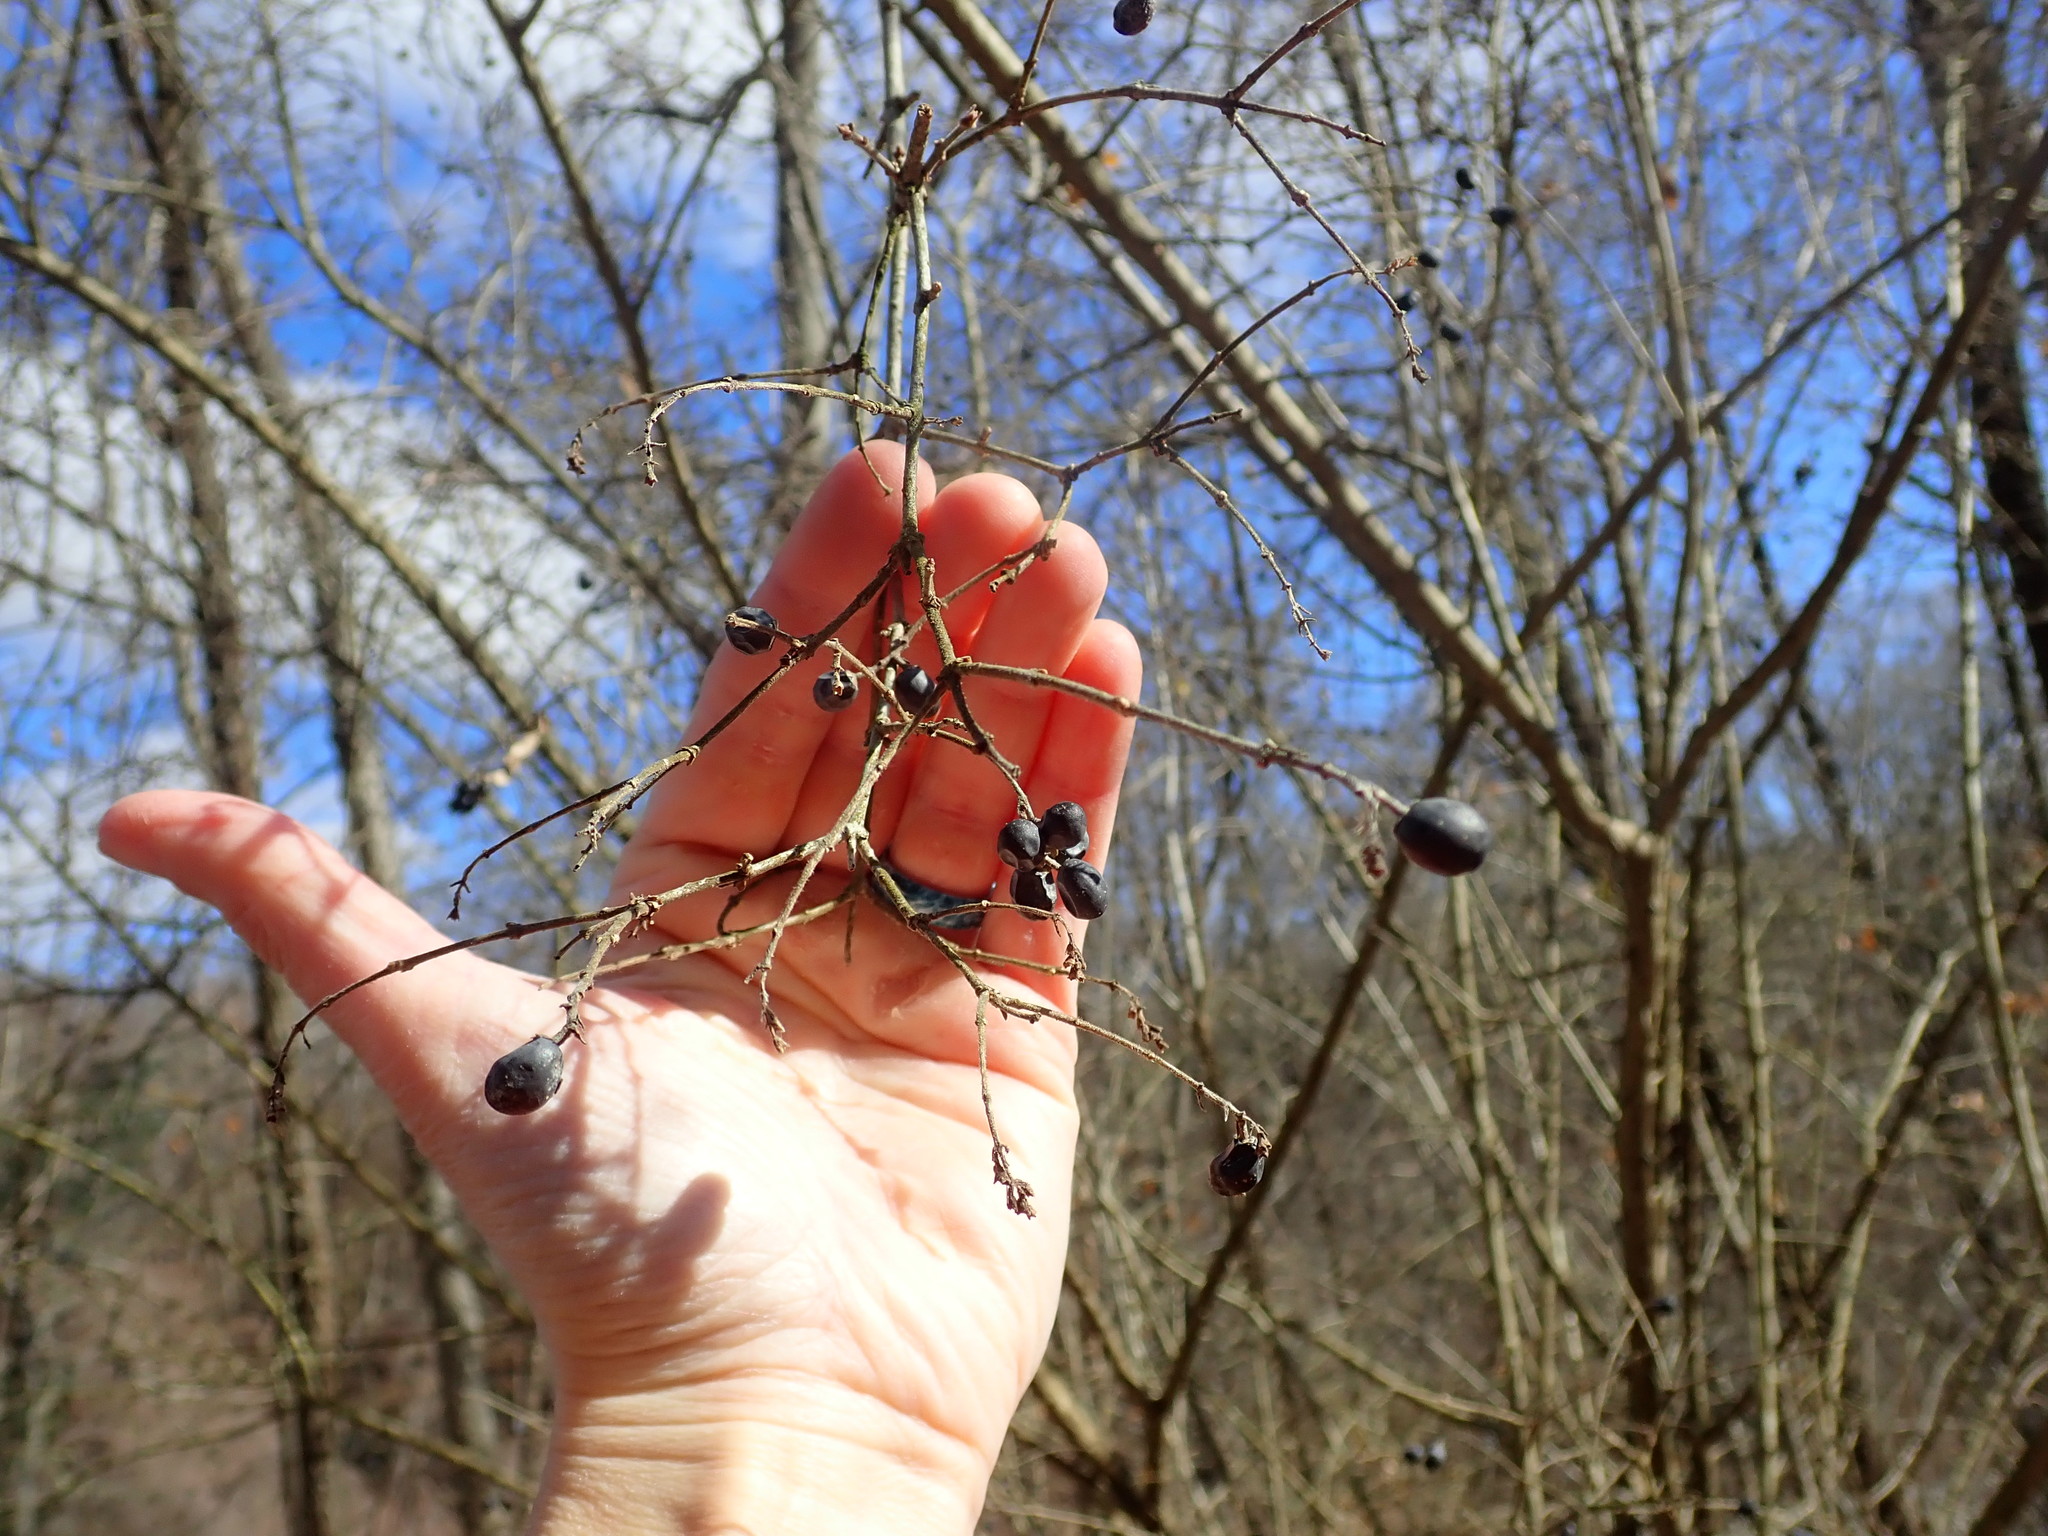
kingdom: Plantae
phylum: Tracheophyta
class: Magnoliopsida
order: Lamiales
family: Oleaceae
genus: Ligustrum
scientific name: Ligustrum obtusifolium
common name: Border privet
